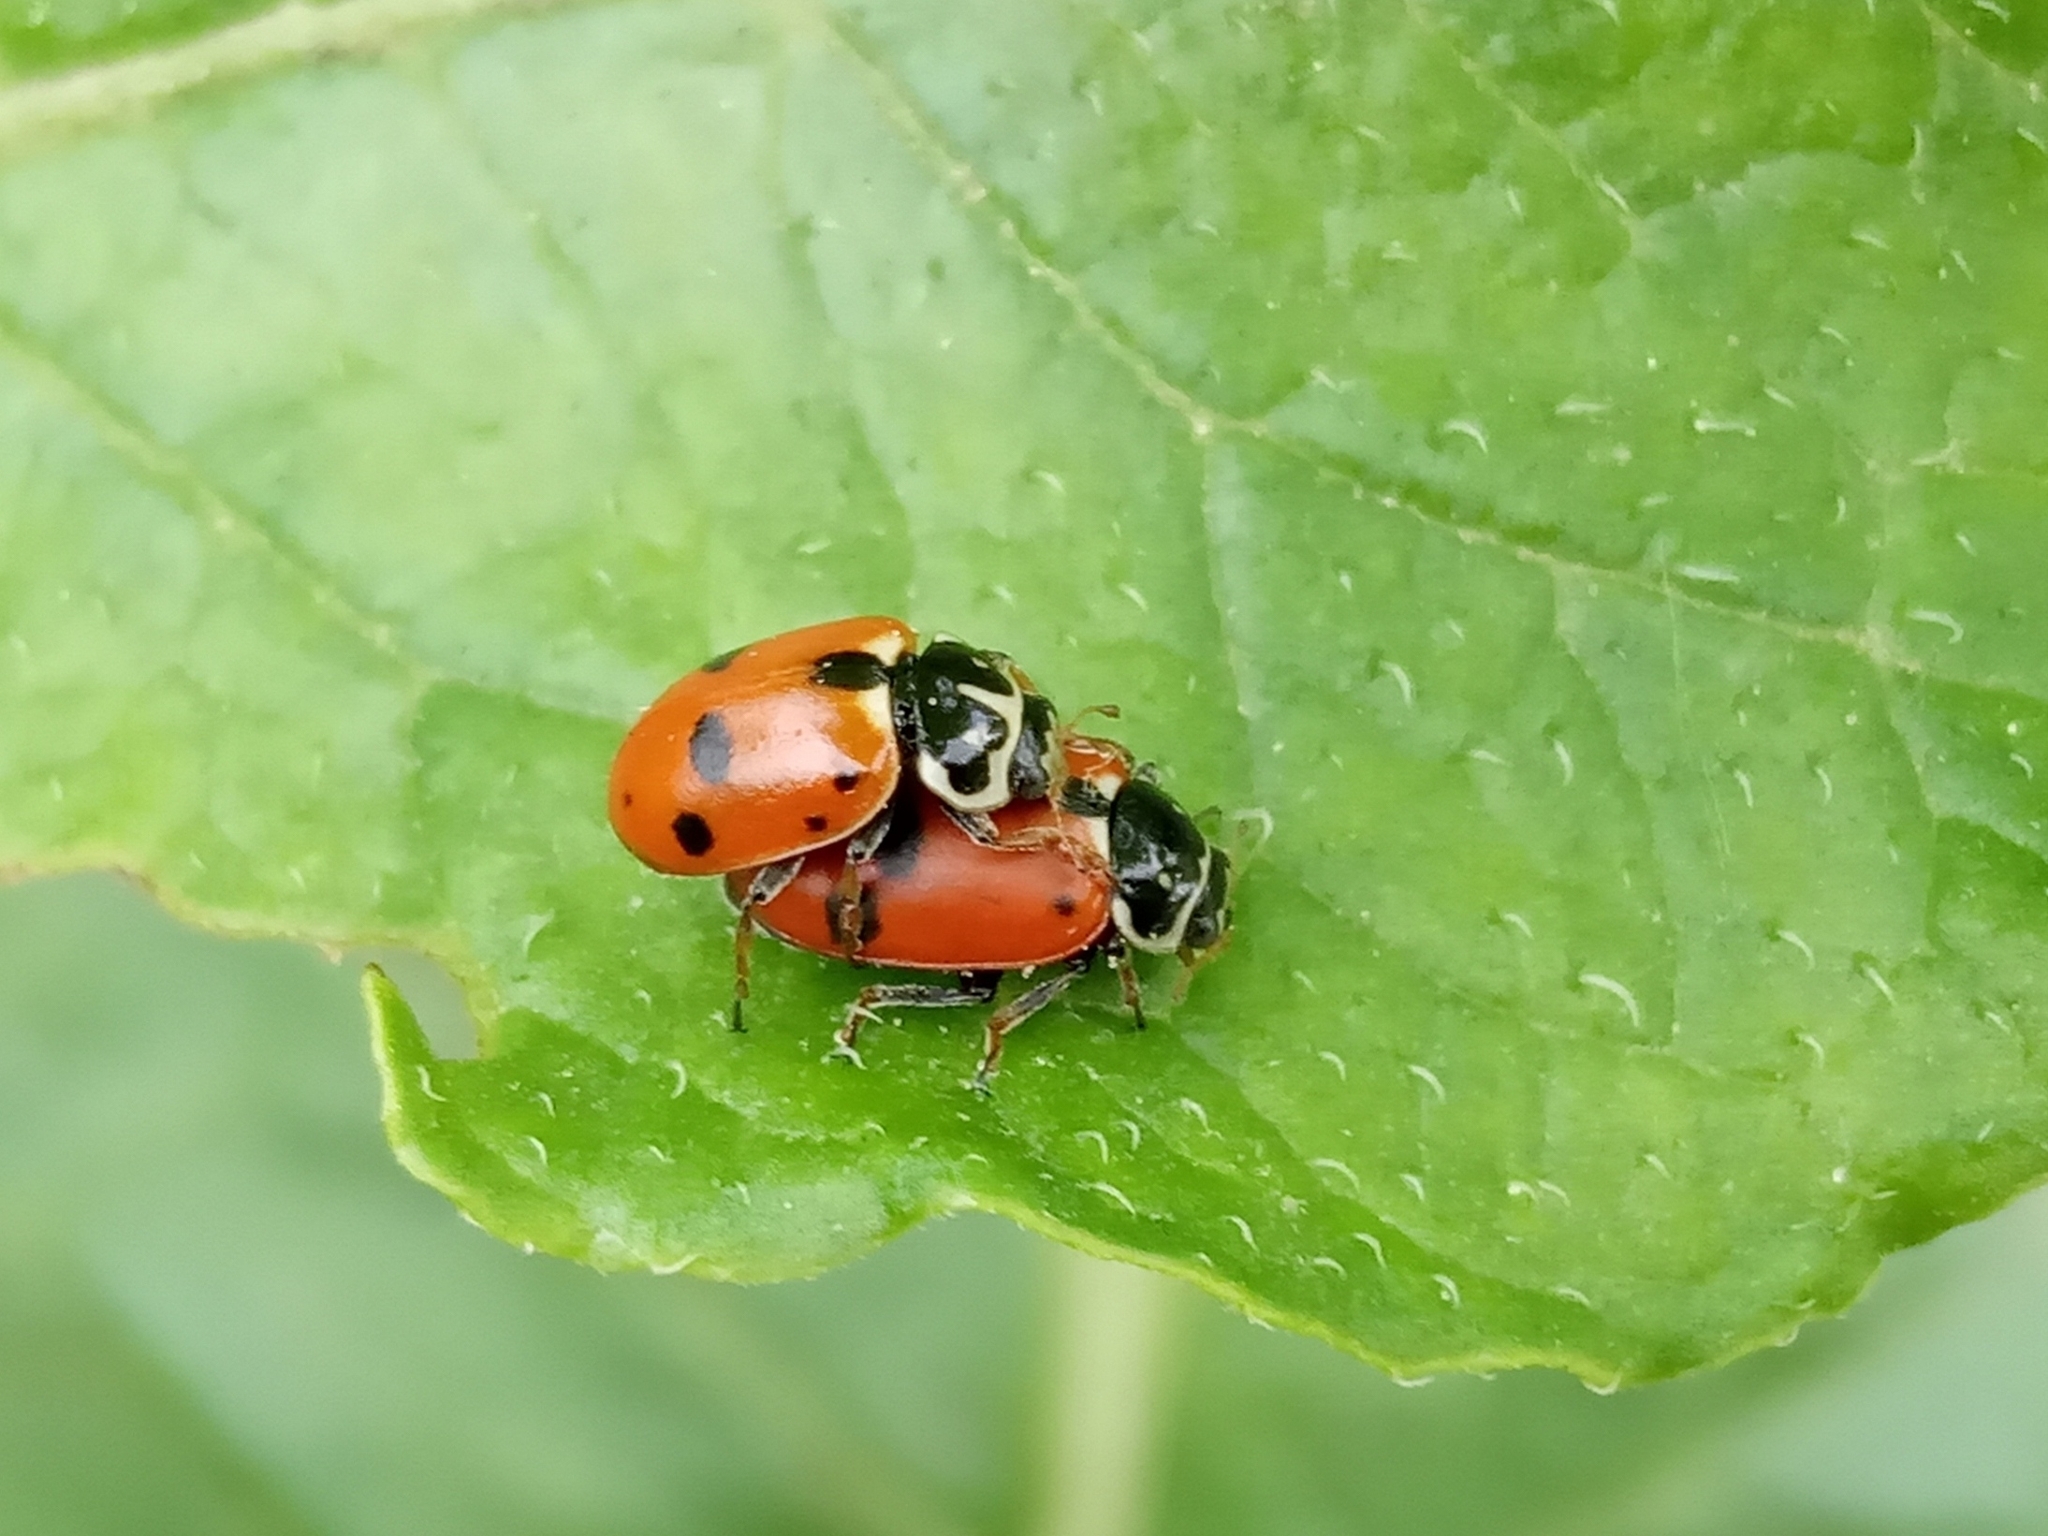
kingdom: Animalia
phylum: Arthropoda
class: Insecta
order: Coleoptera
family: Coccinellidae
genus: Hippodamia
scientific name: Hippodamia variegata
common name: Ladybird beetle
